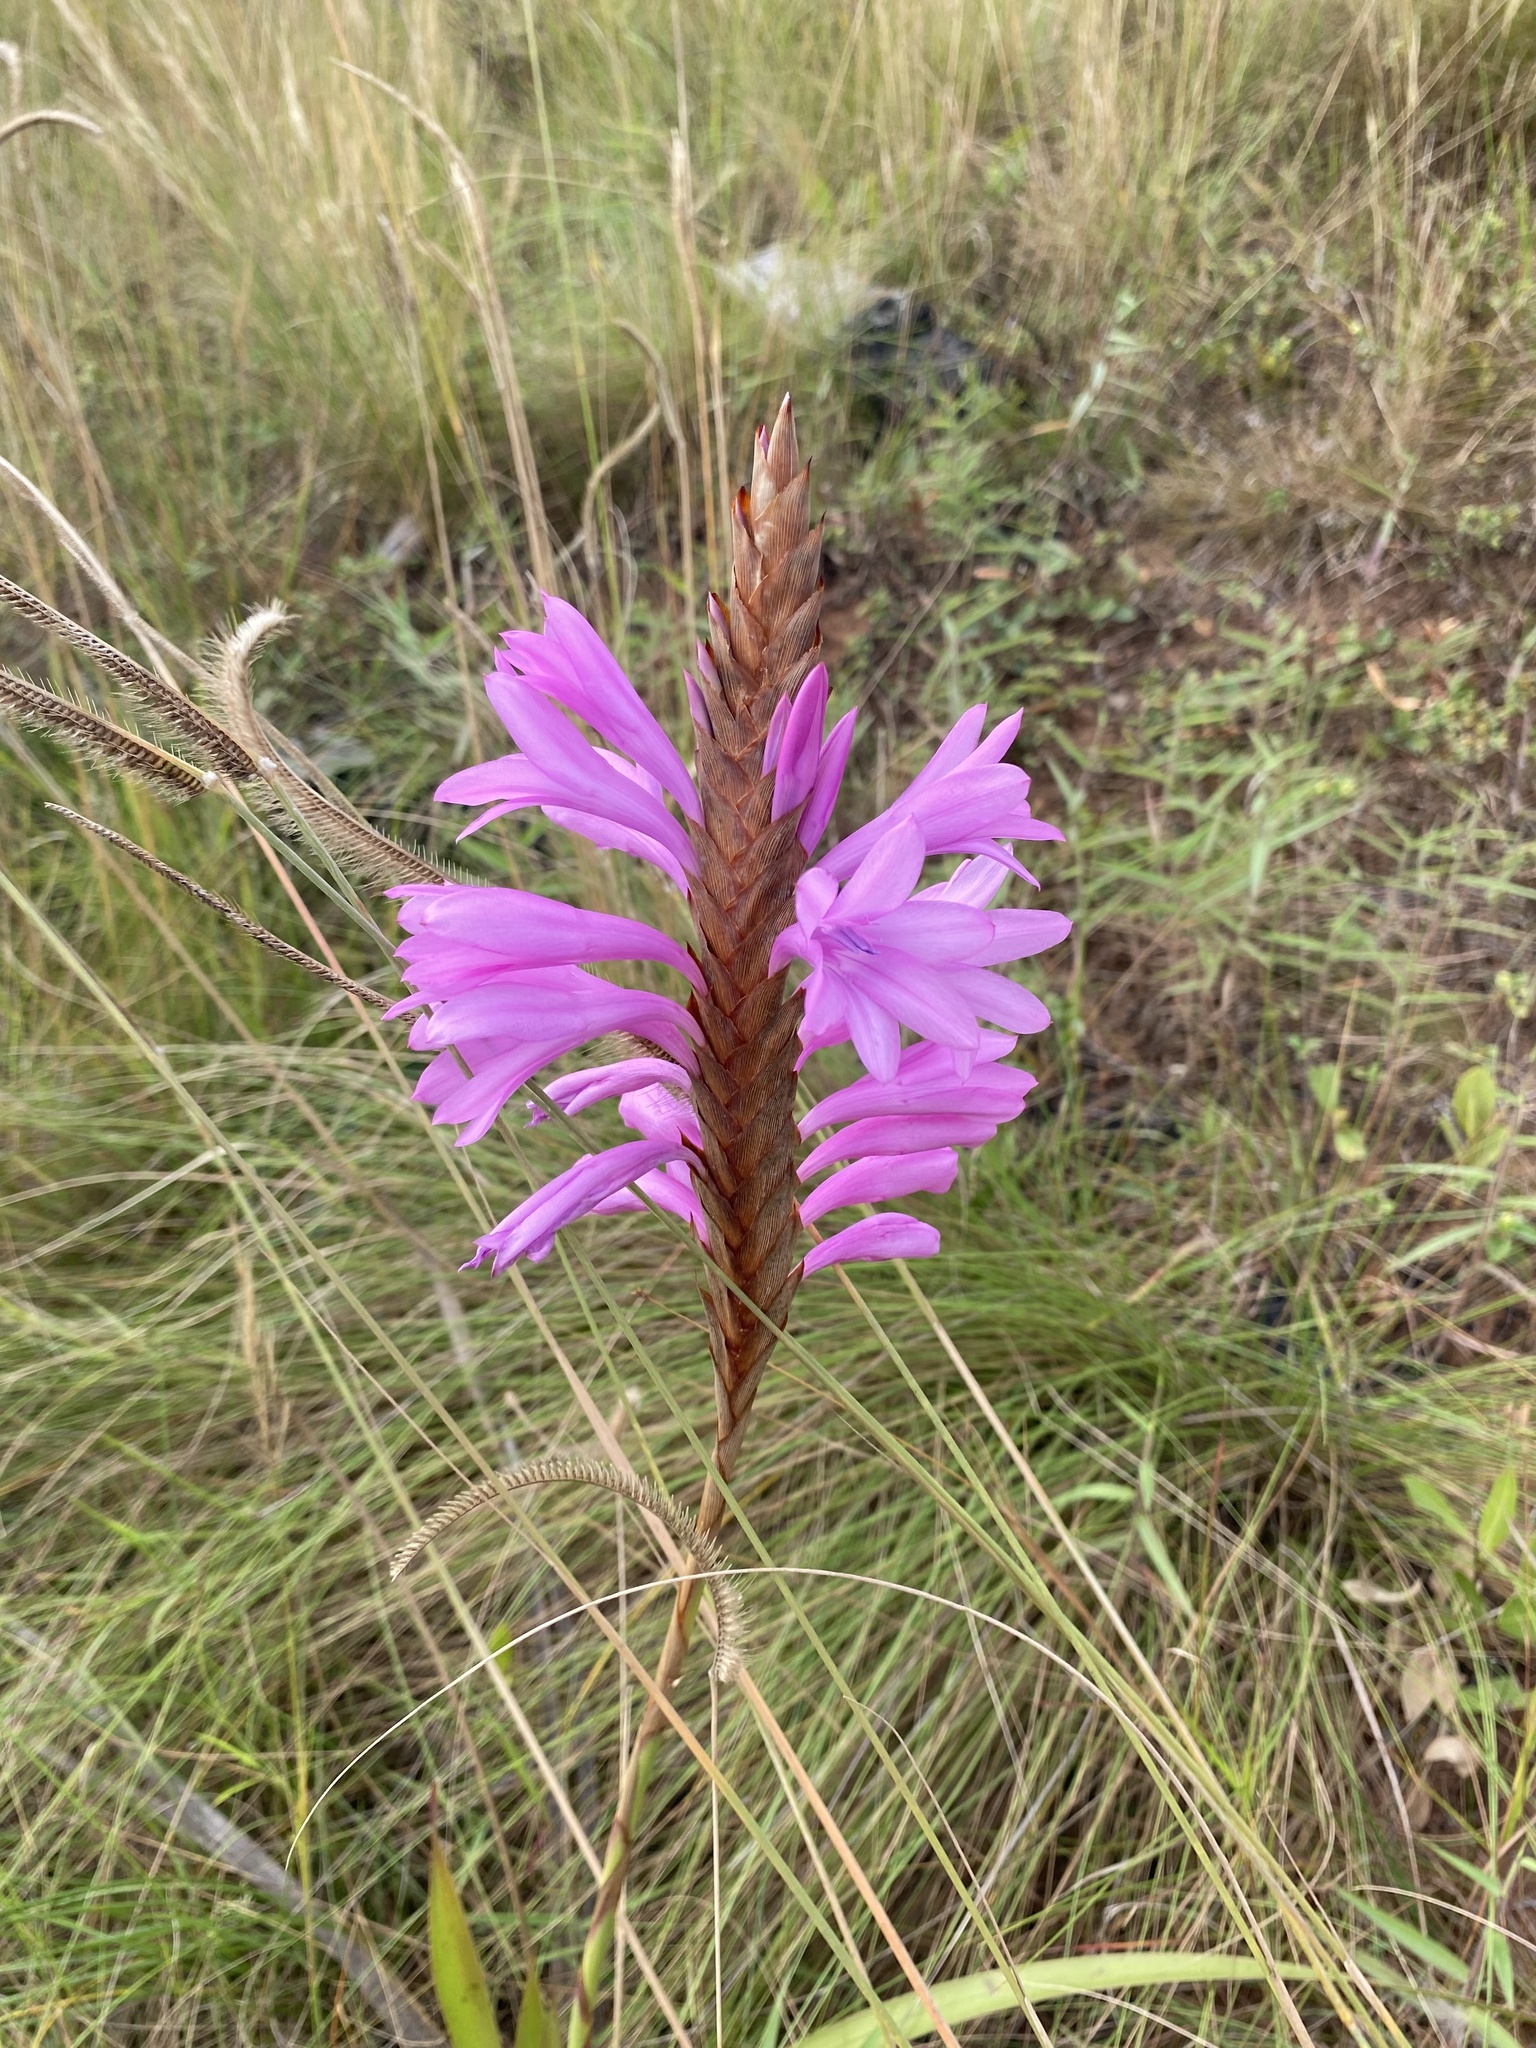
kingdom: Plantae
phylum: Tracheophyta
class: Liliopsida
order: Asparagales
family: Iridaceae
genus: Watsonia
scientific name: Watsonia densiflora
